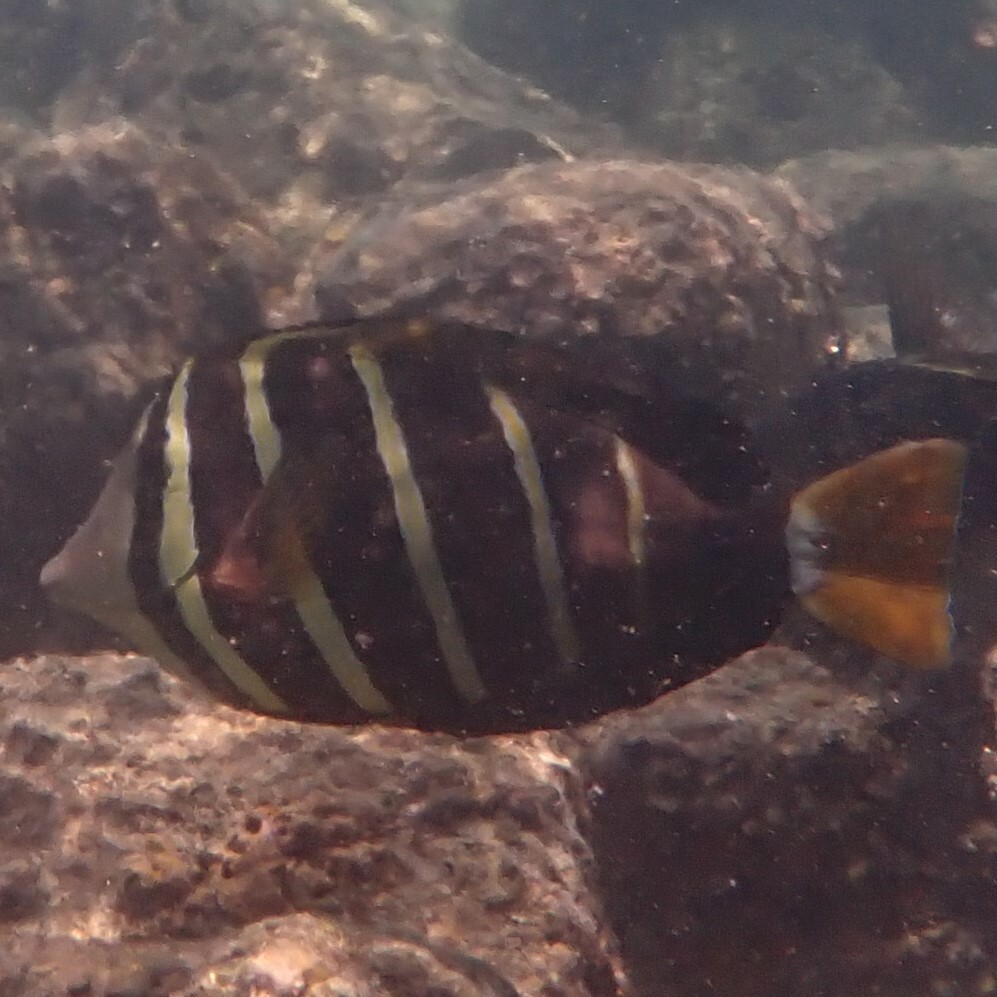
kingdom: Animalia
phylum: Chordata
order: Perciformes
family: Acanthuridae
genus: Zebrasoma
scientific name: Zebrasoma veliferum
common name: Sailfin surgeonfish
